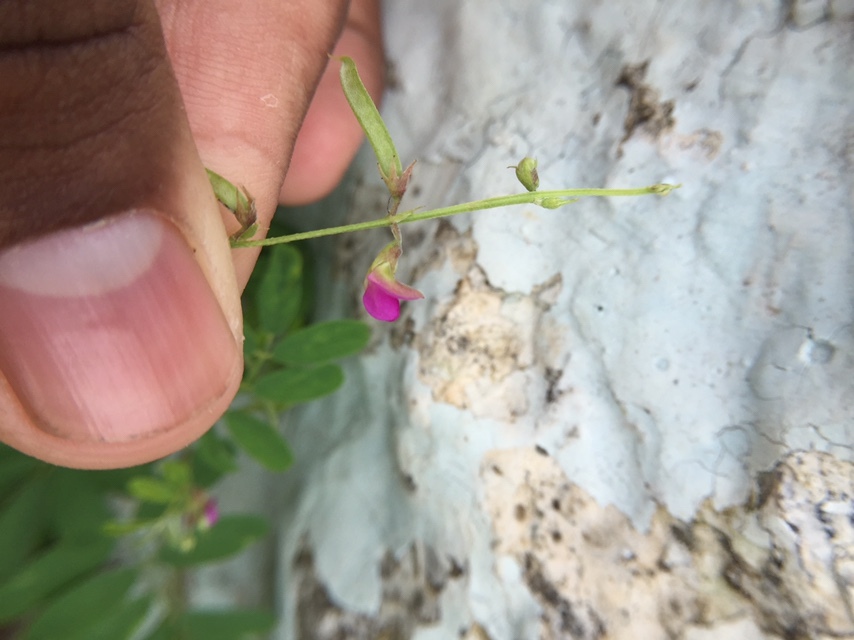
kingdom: Plantae
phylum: Tracheophyta
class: Magnoliopsida
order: Fabales
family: Fabaceae
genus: Tephrosia
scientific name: Tephrosia purpurea
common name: Fishpoison
